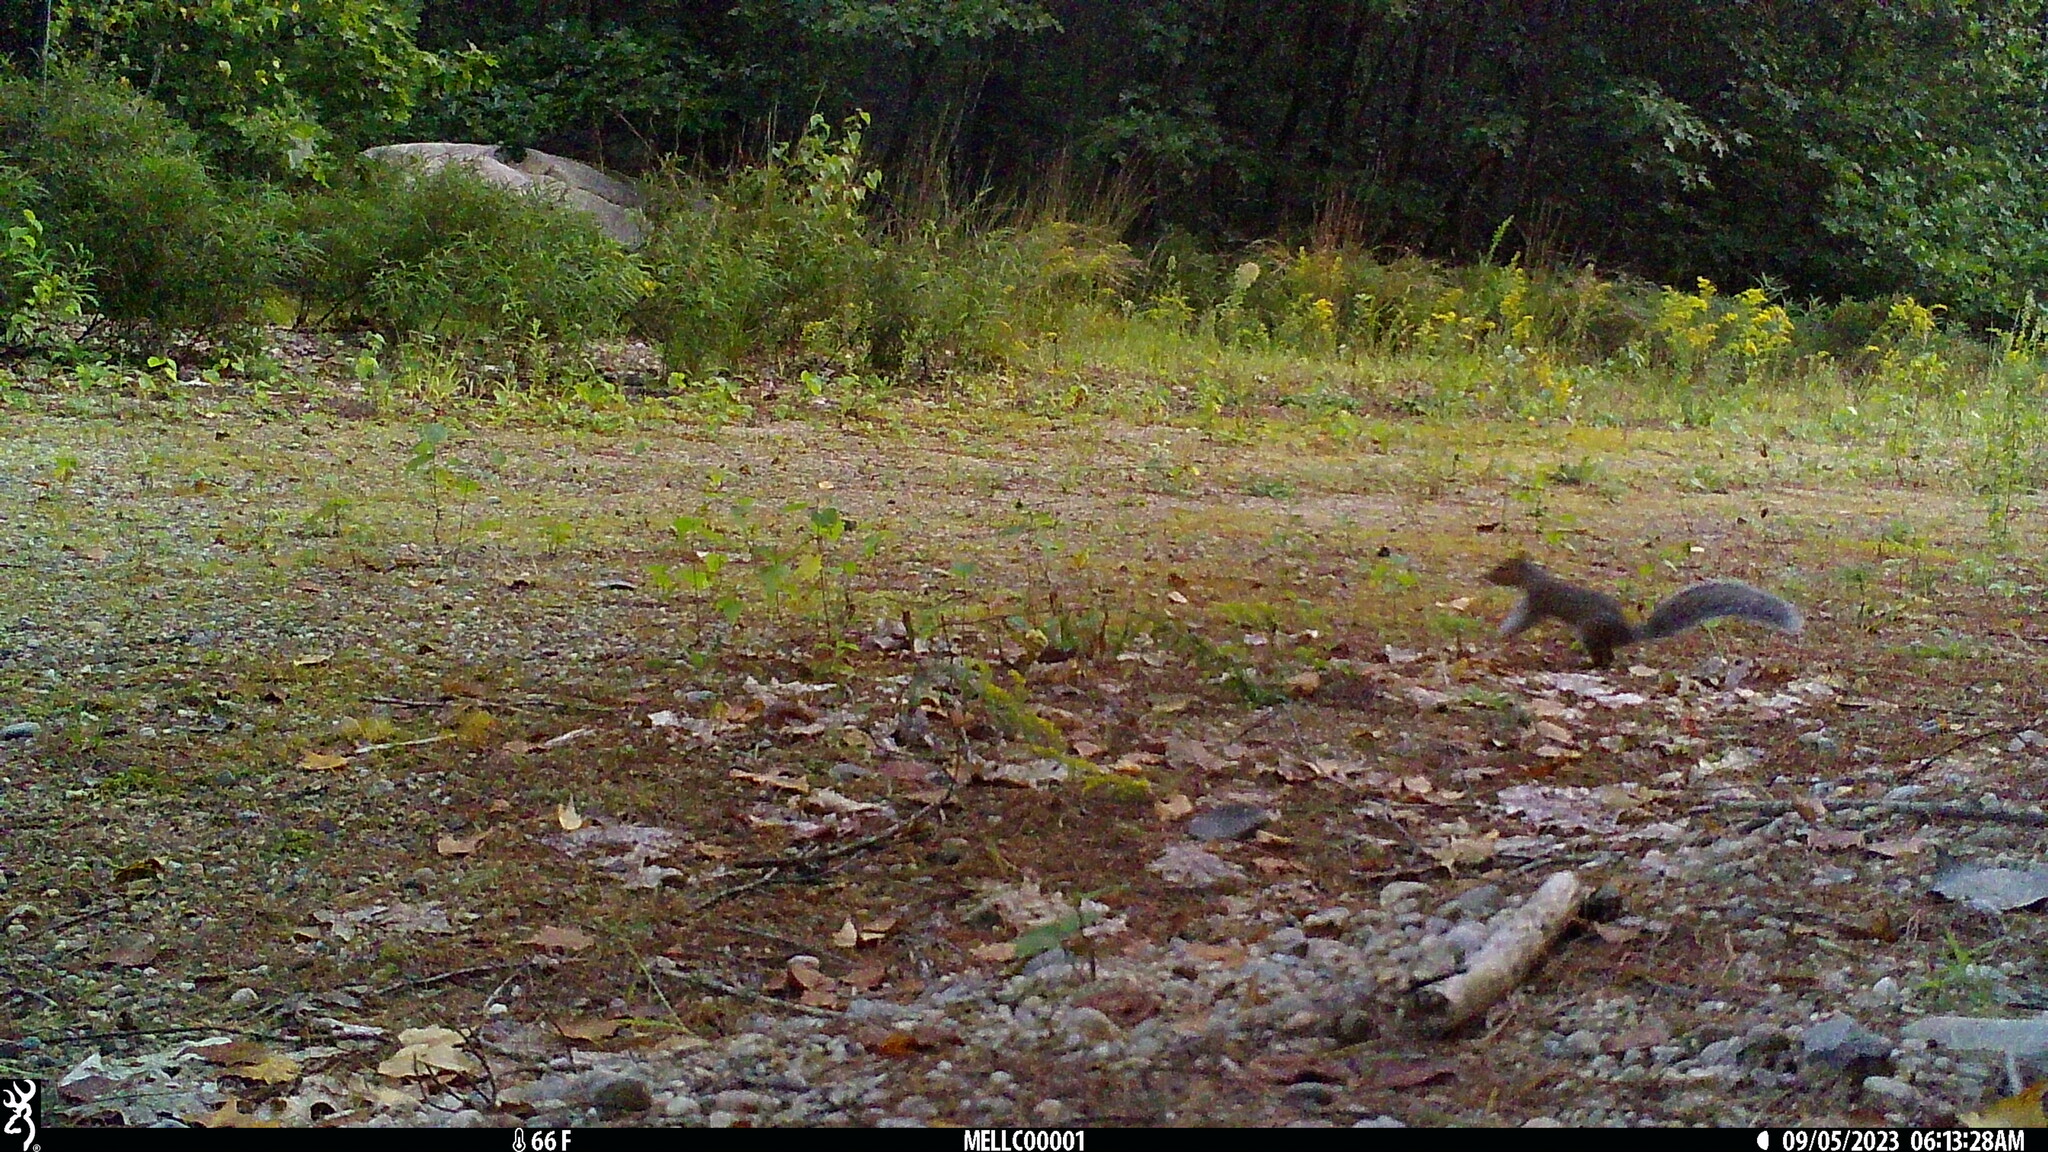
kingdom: Animalia
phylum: Chordata
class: Mammalia
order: Rodentia
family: Sciuridae
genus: Sciurus
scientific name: Sciurus carolinensis
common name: Eastern gray squirrel
